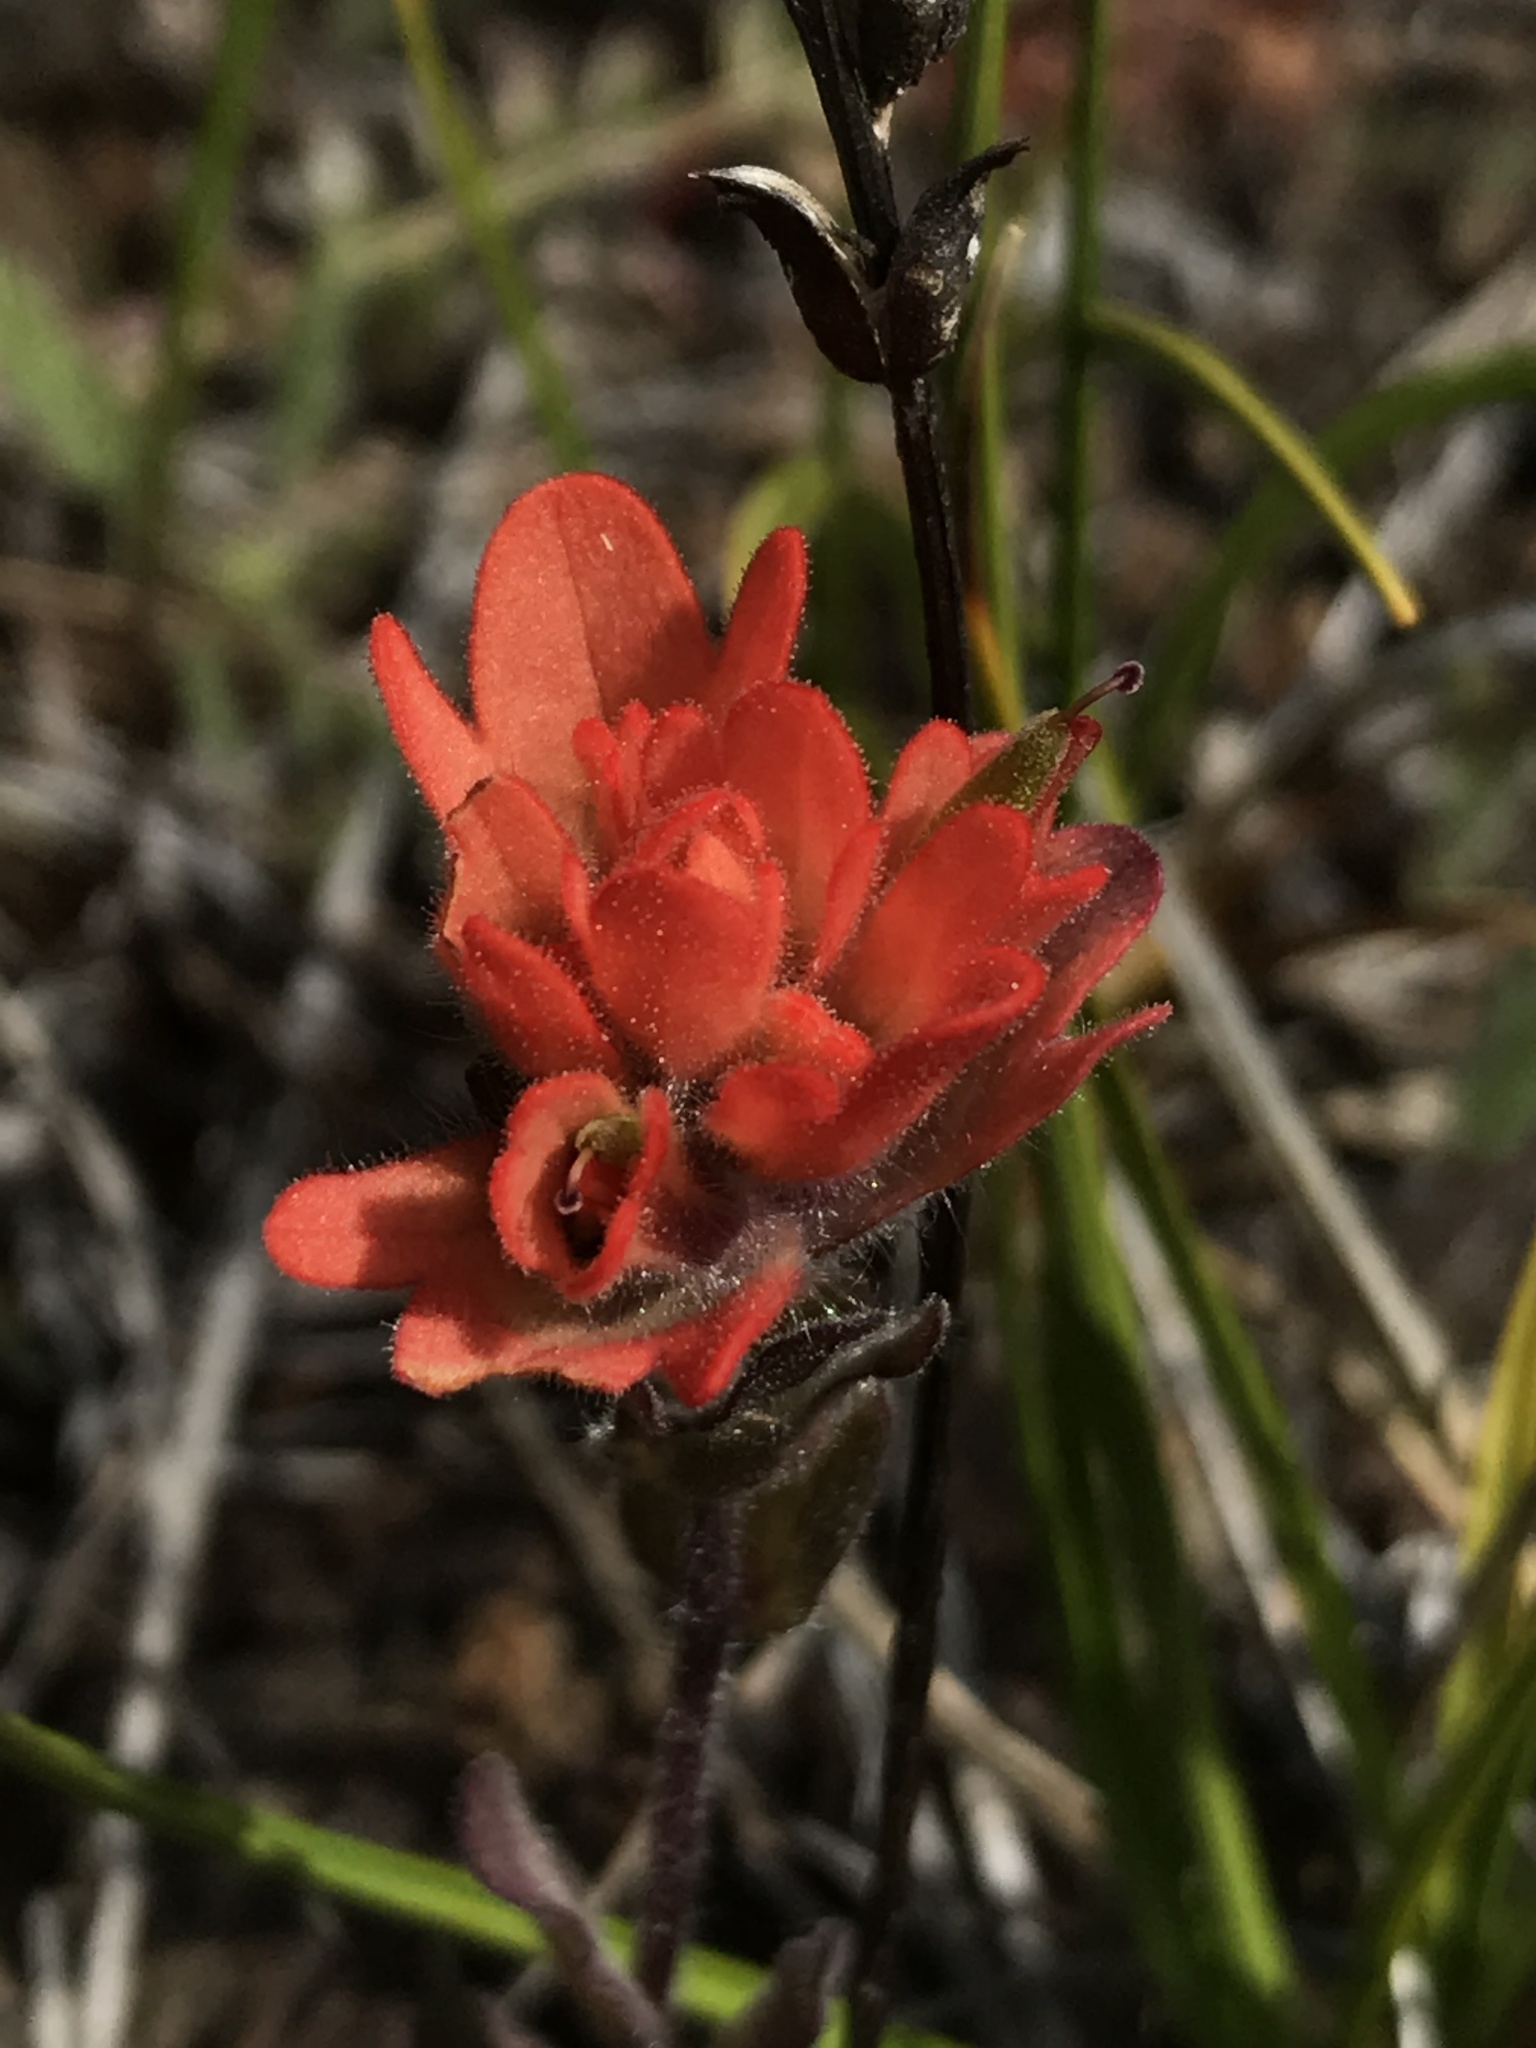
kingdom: Plantae
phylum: Tracheophyta
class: Magnoliopsida
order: Lamiales
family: Orobanchaceae
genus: Castilleja
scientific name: Castilleja brevilobata
